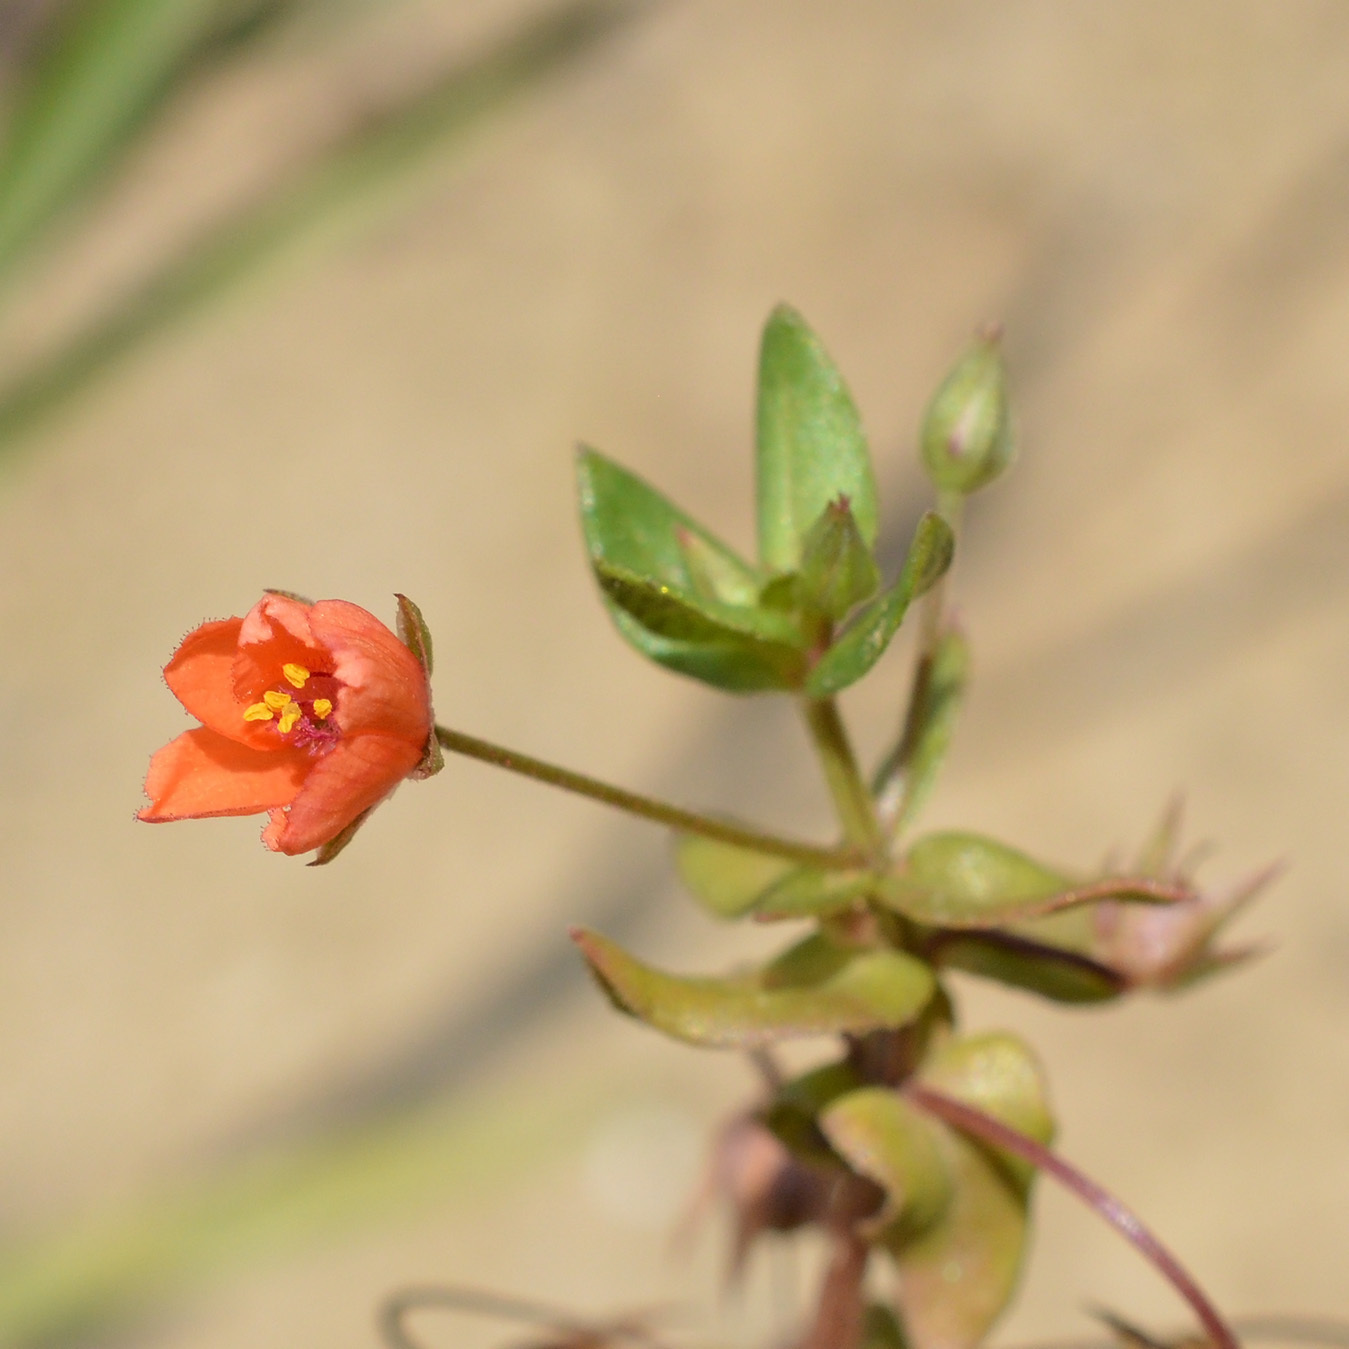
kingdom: Plantae
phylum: Tracheophyta
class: Magnoliopsida
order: Ericales
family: Primulaceae
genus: Lysimachia
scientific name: Lysimachia arvensis
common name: Scarlet pimpernel
